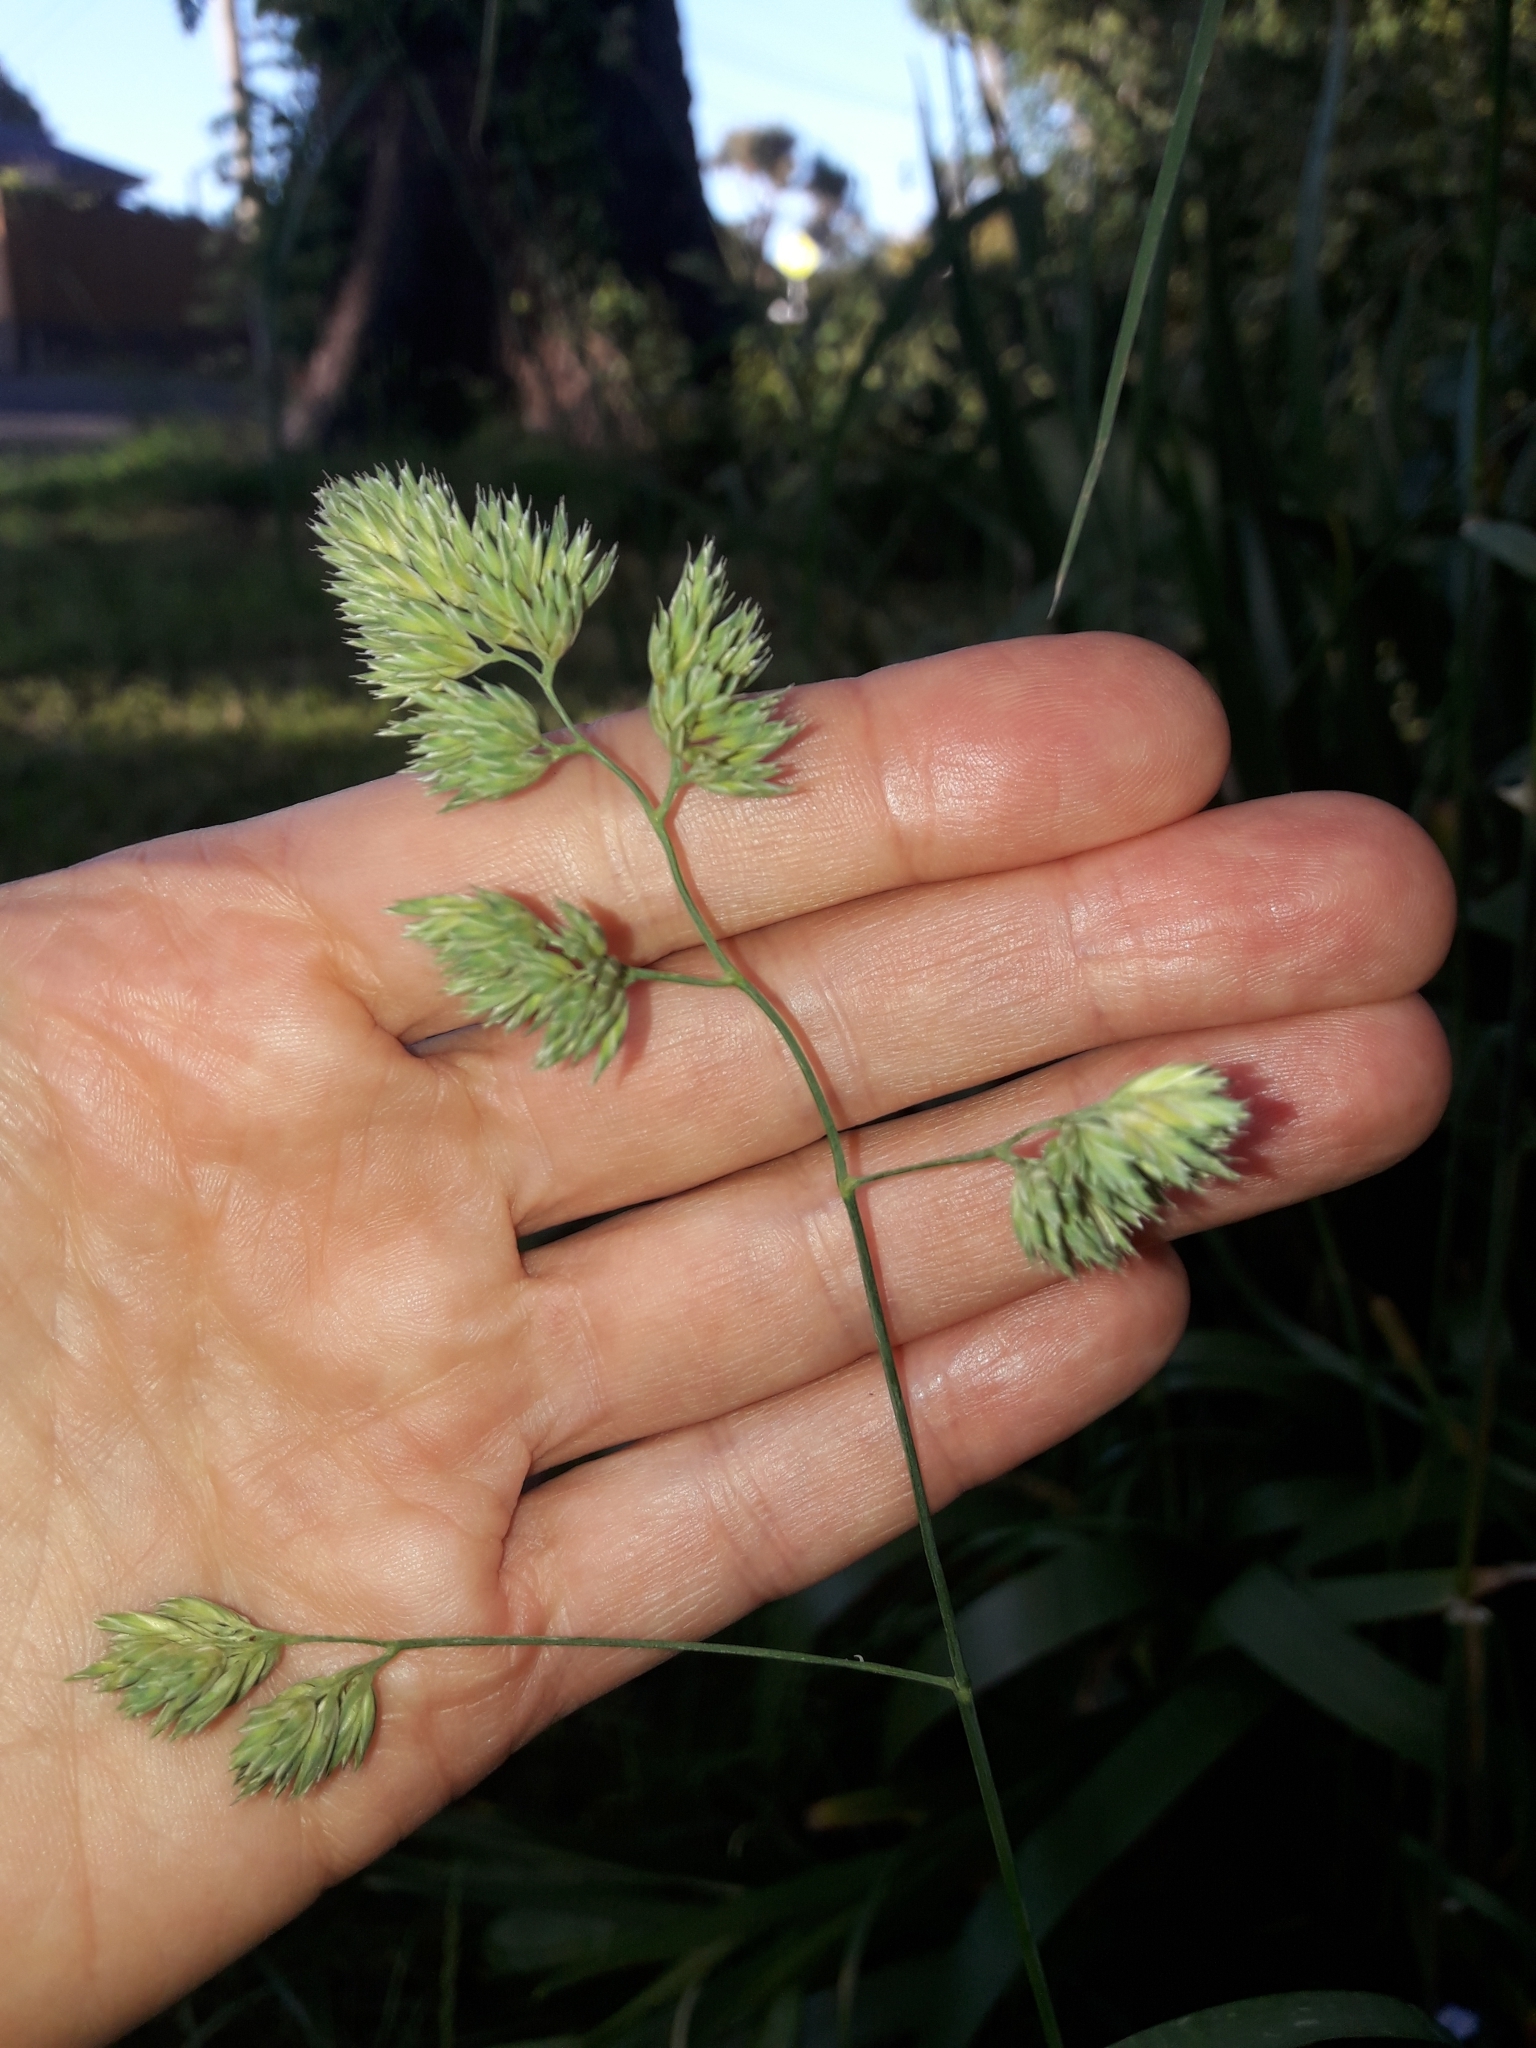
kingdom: Plantae
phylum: Tracheophyta
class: Liliopsida
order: Poales
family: Poaceae
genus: Dactylis
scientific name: Dactylis glomerata
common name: Orchardgrass
